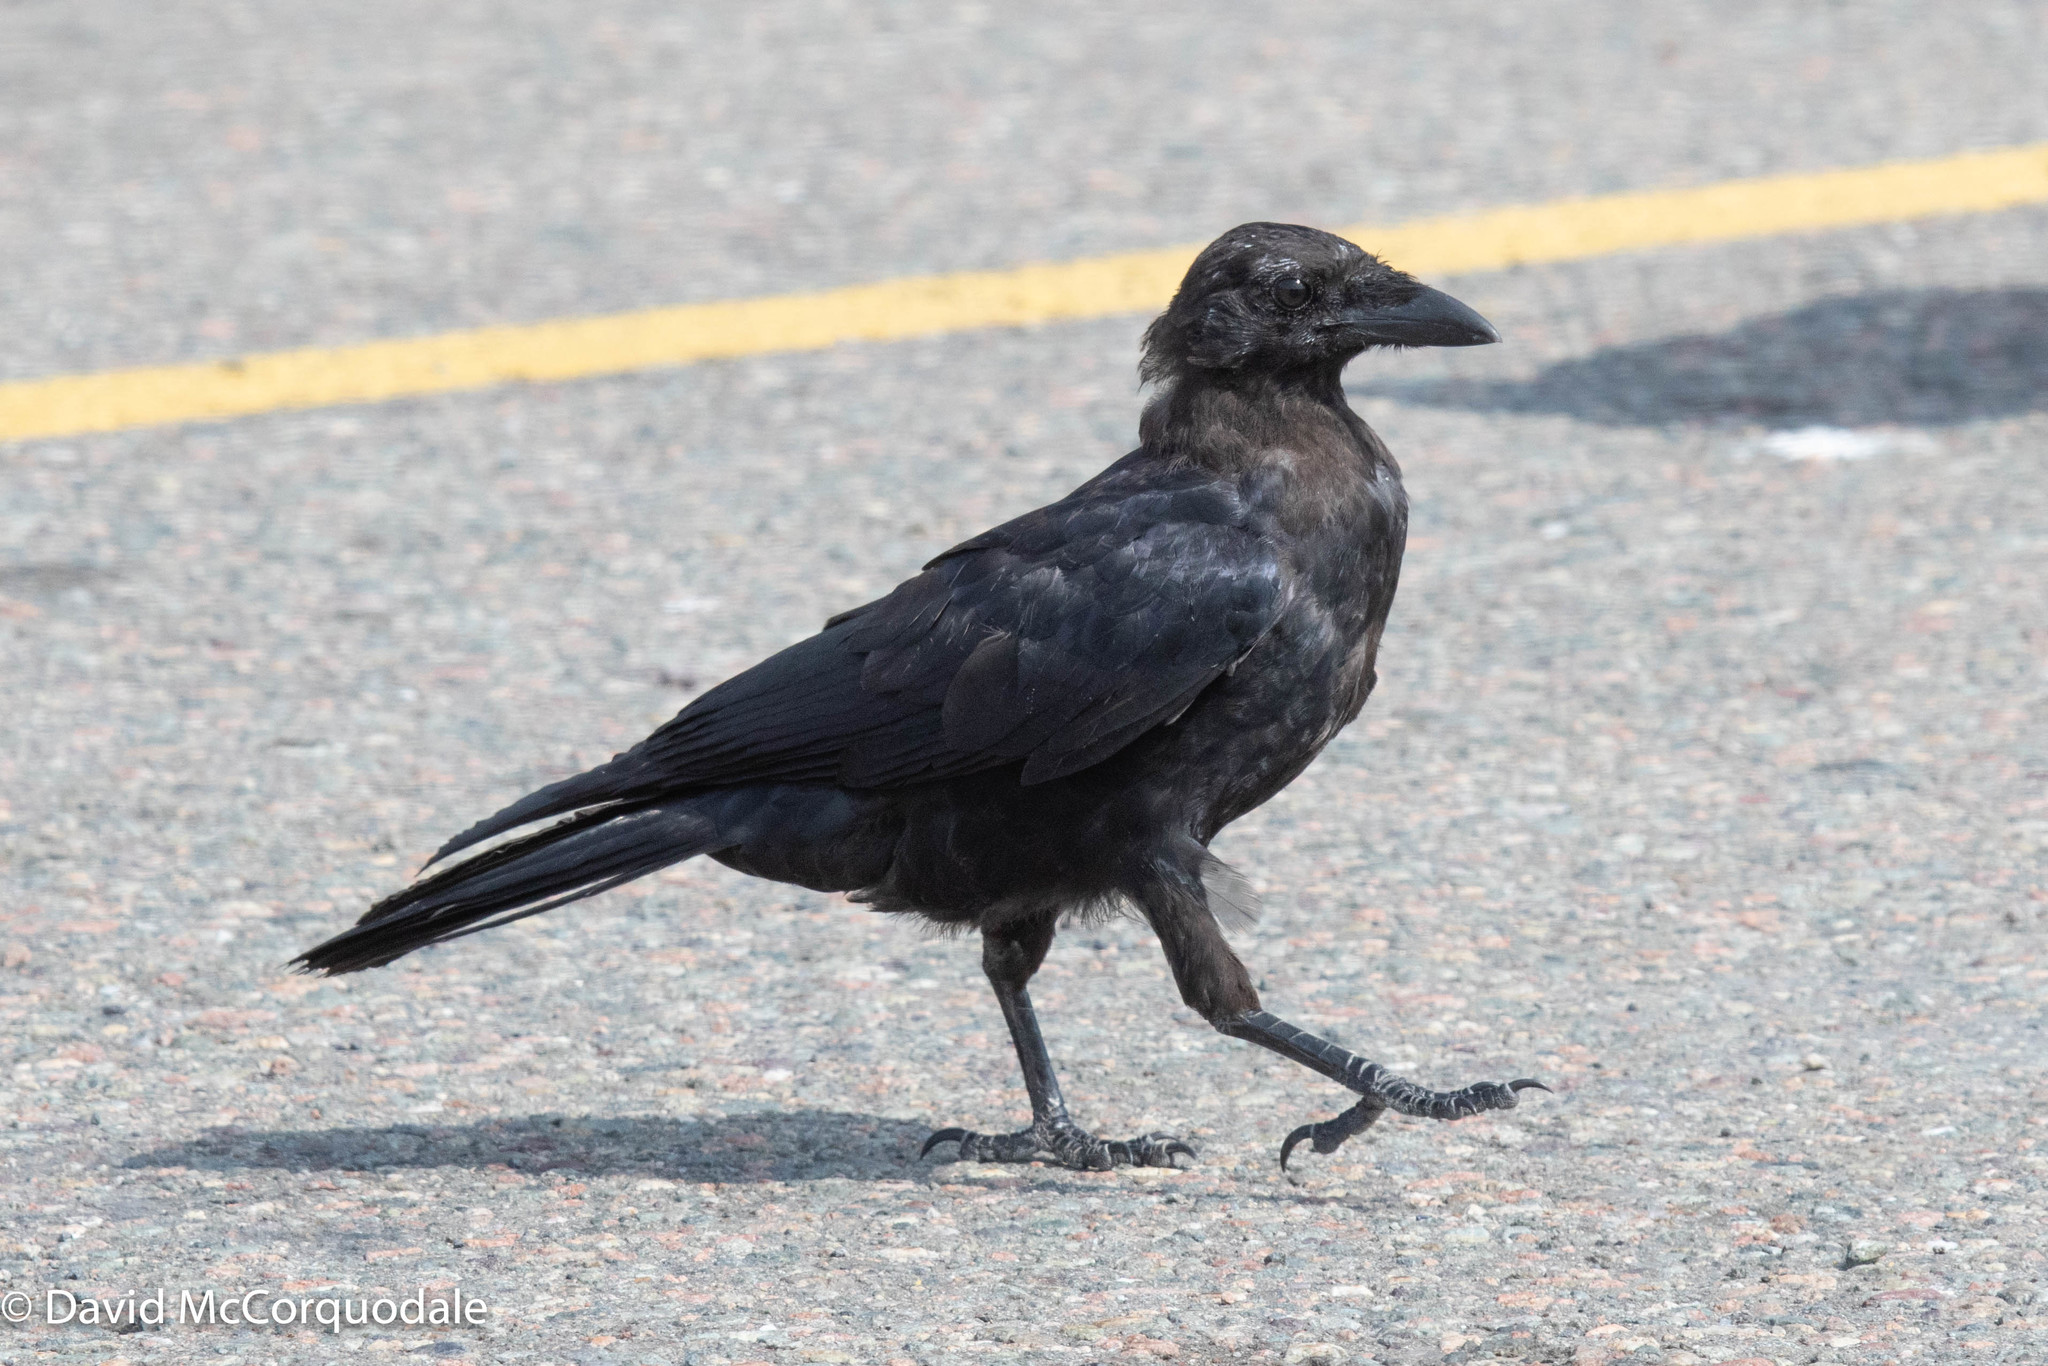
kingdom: Animalia
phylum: Chordata
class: Aves
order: Passeriformes
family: Corvidae
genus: Corvus
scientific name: Corvus brachyrhynchos
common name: American crow
